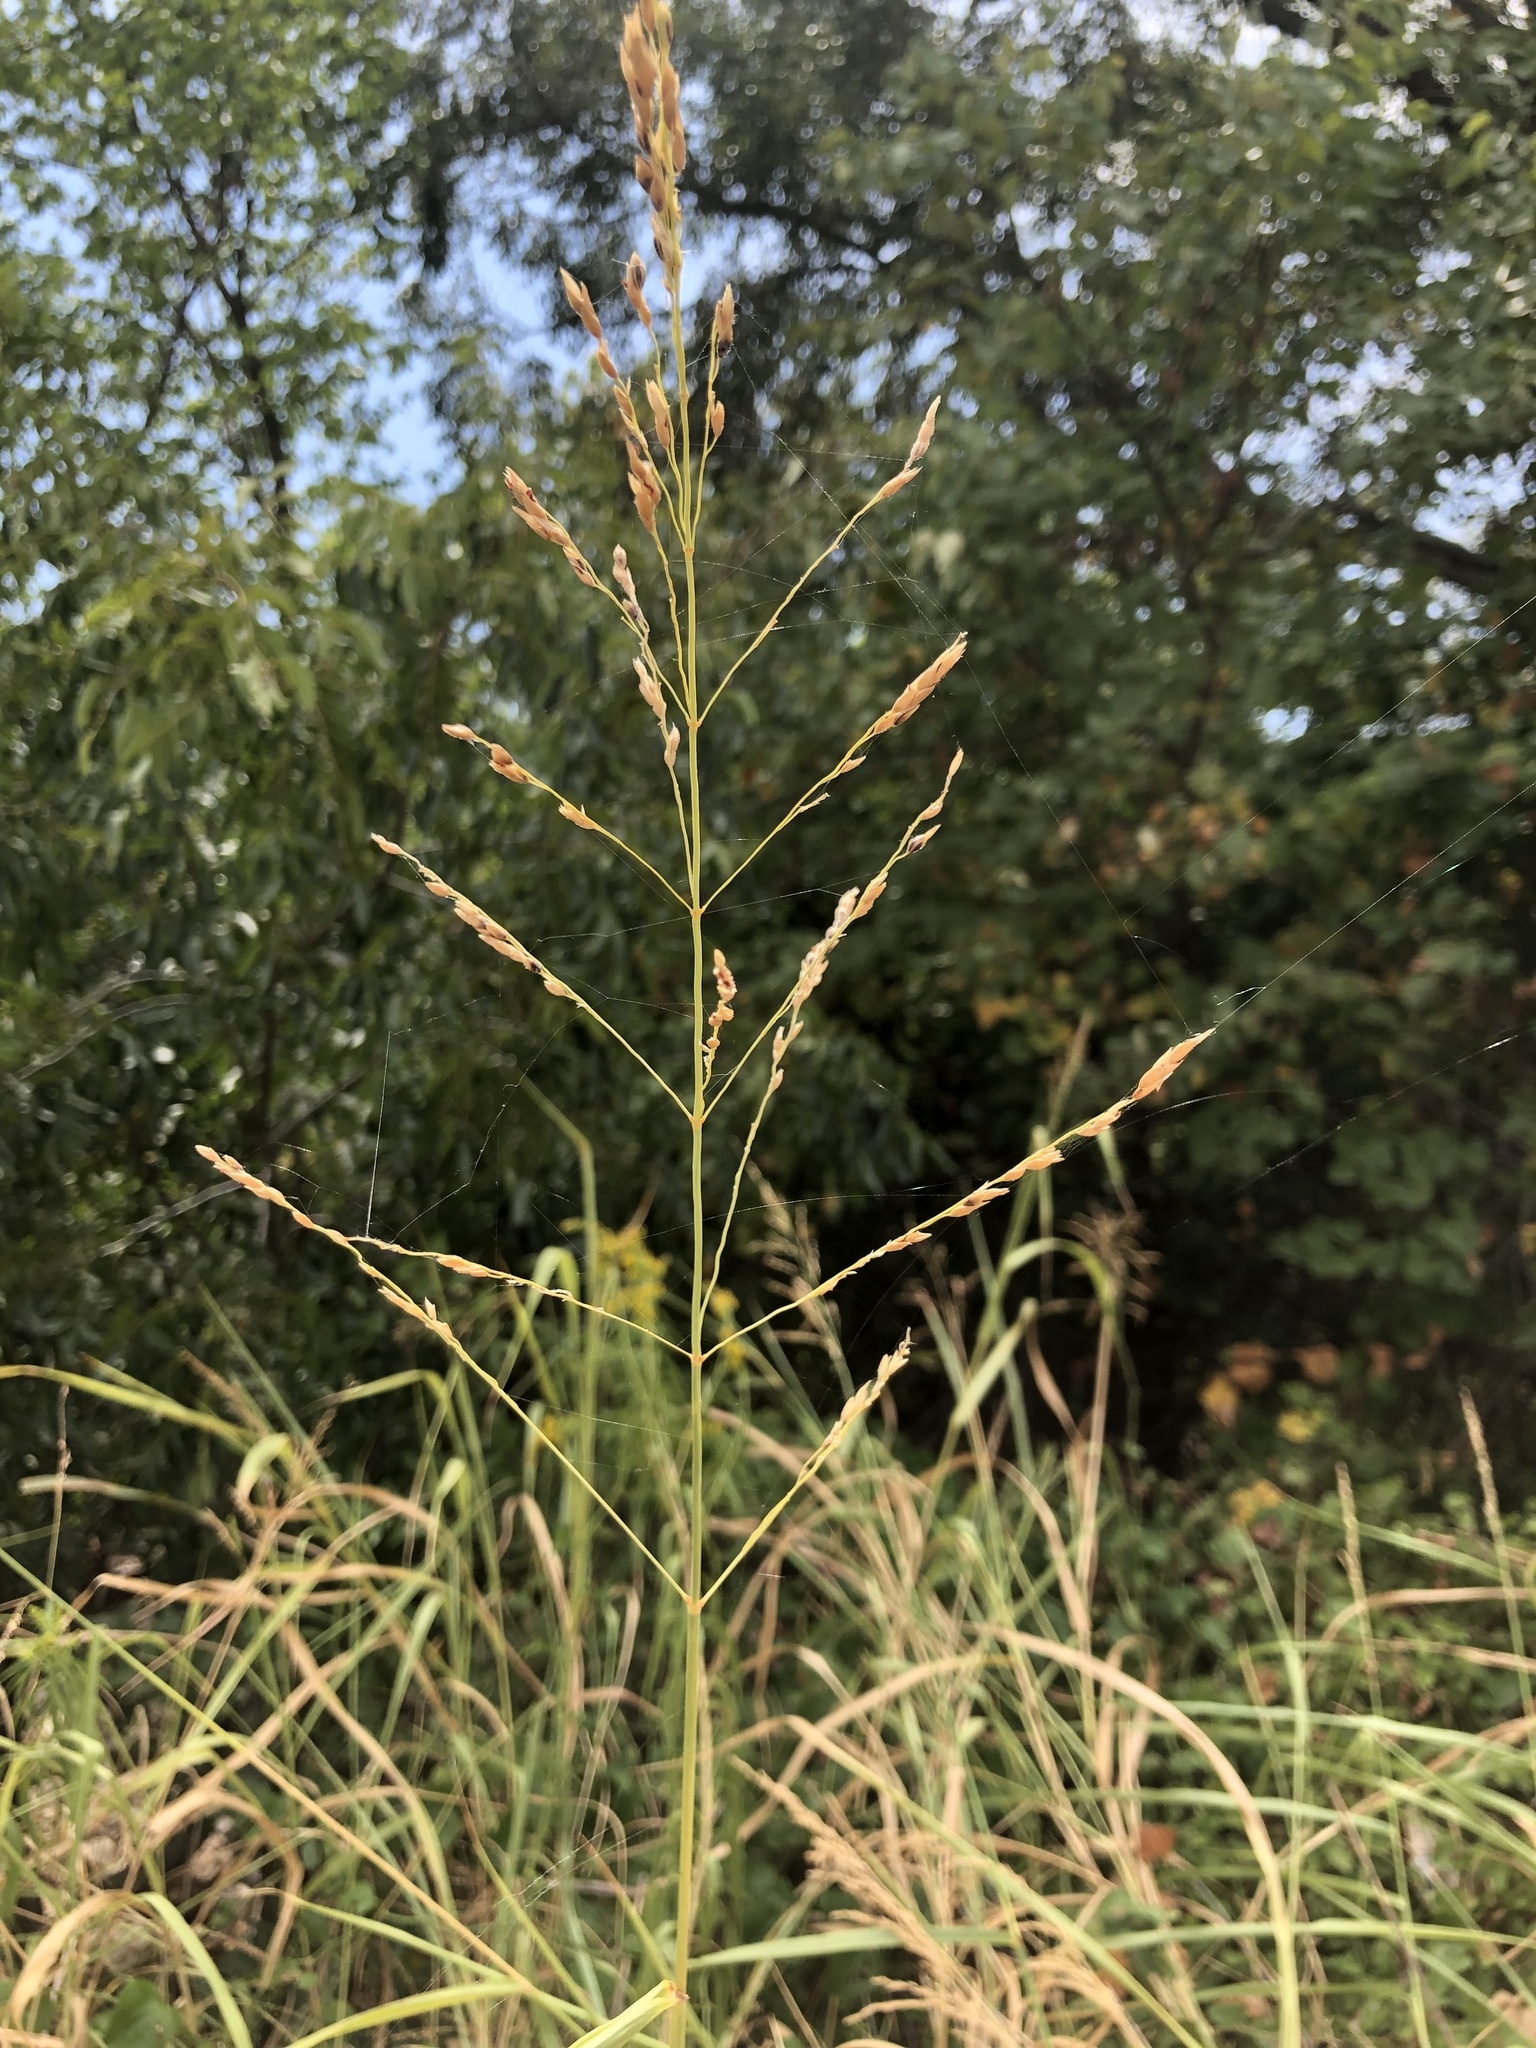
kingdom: Plantae
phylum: Tracheophyta
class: Liliopsida
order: Poales
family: Poaceae
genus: Sorghum
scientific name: Sorghum halepense
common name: Johnson-grass
